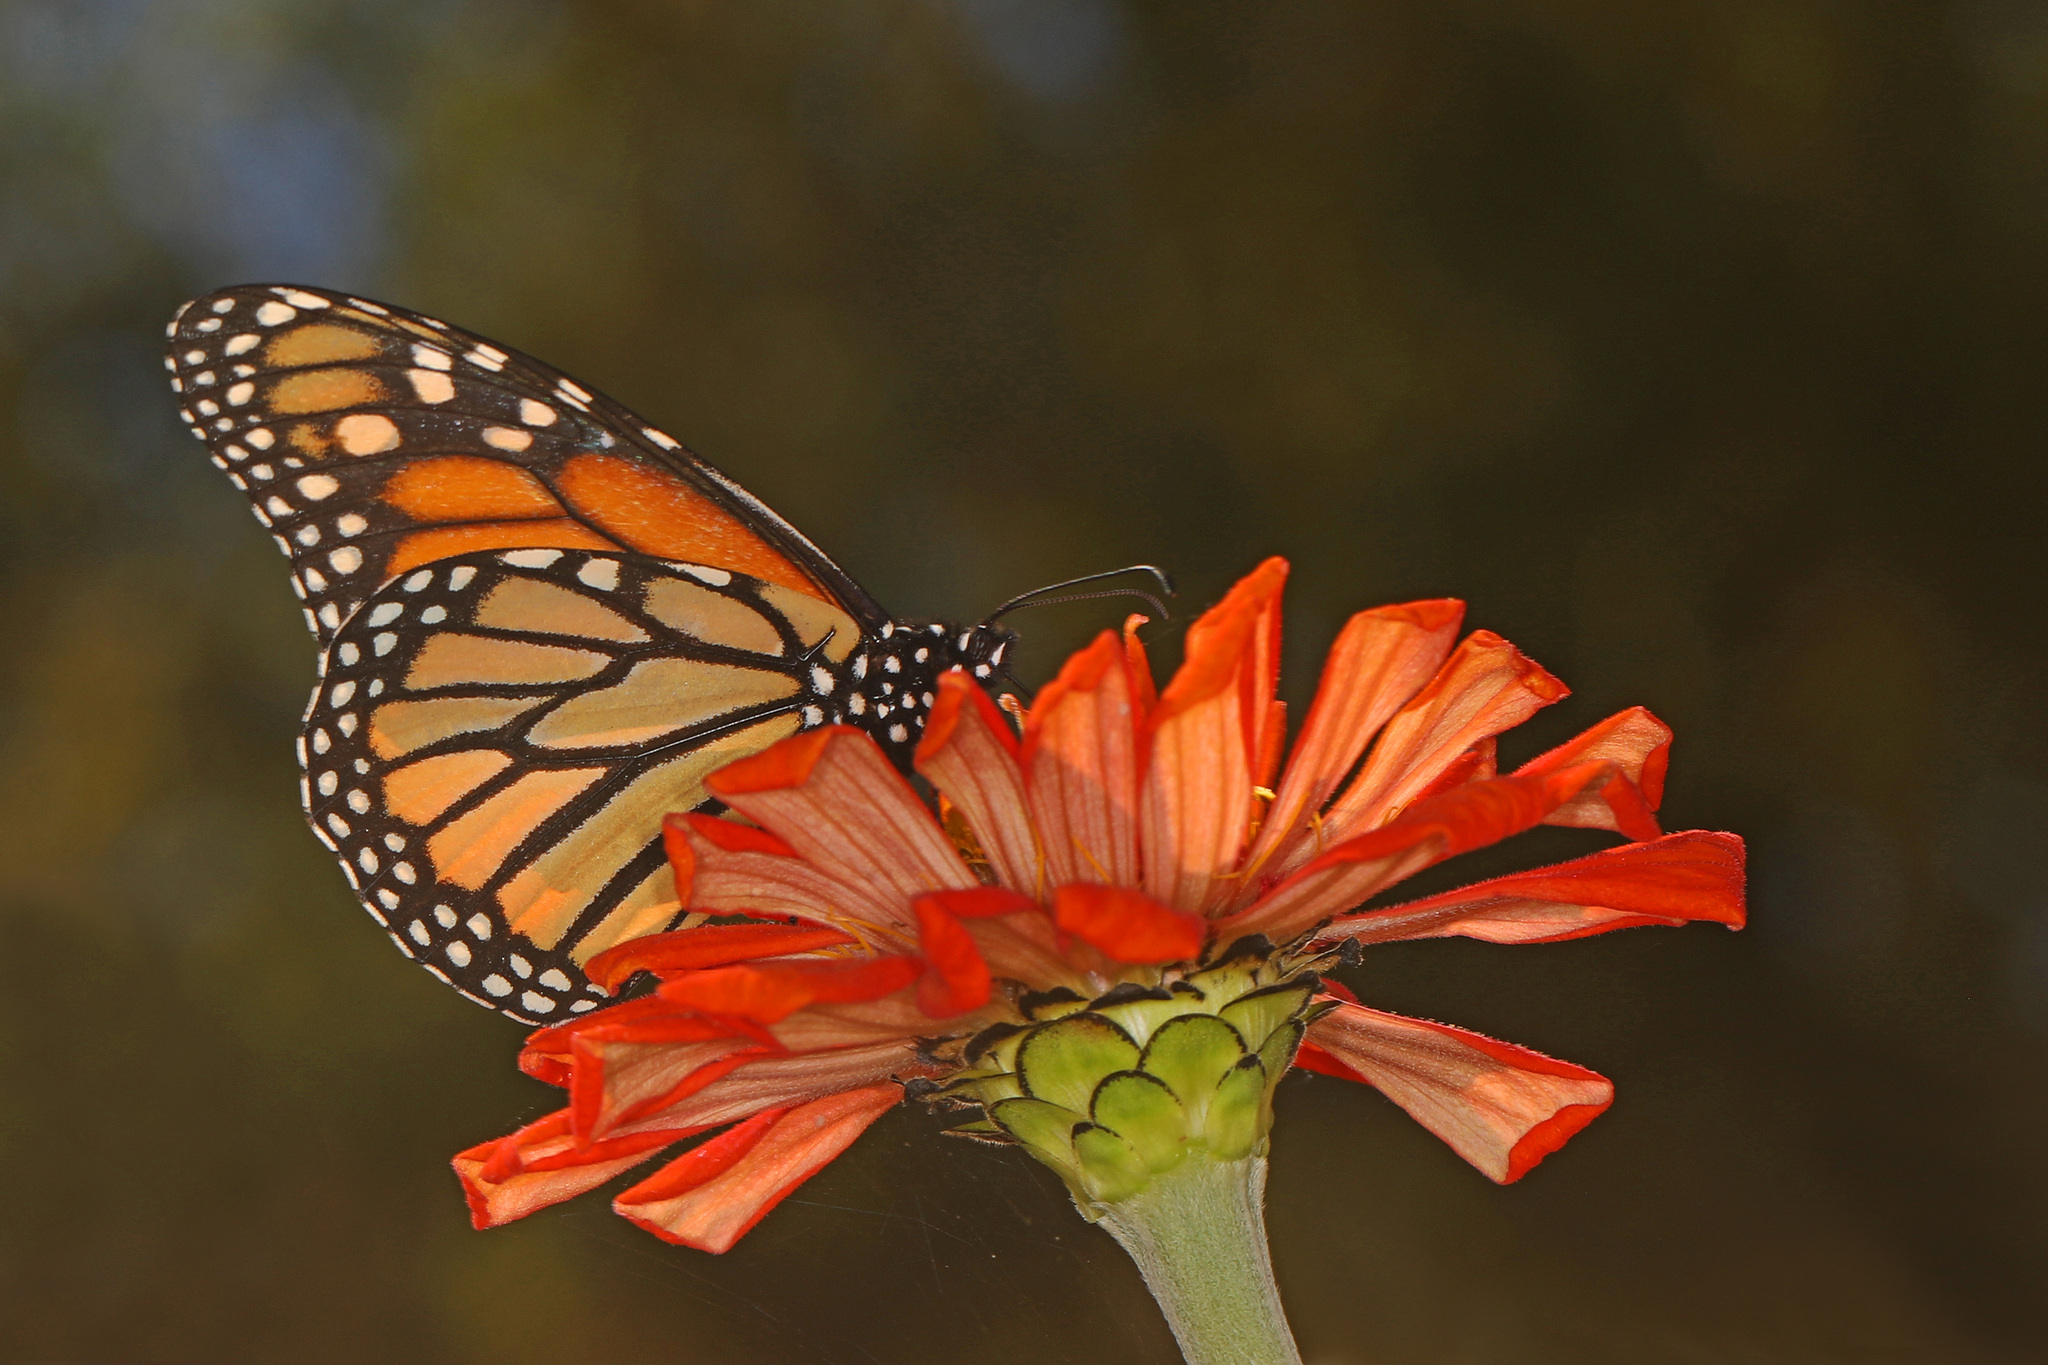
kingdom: Animalia
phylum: Arthropoda
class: Insecta
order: Lepidoptera
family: Nymphalidae
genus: Danaus
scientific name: Danaus plexippus
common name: Monarch
